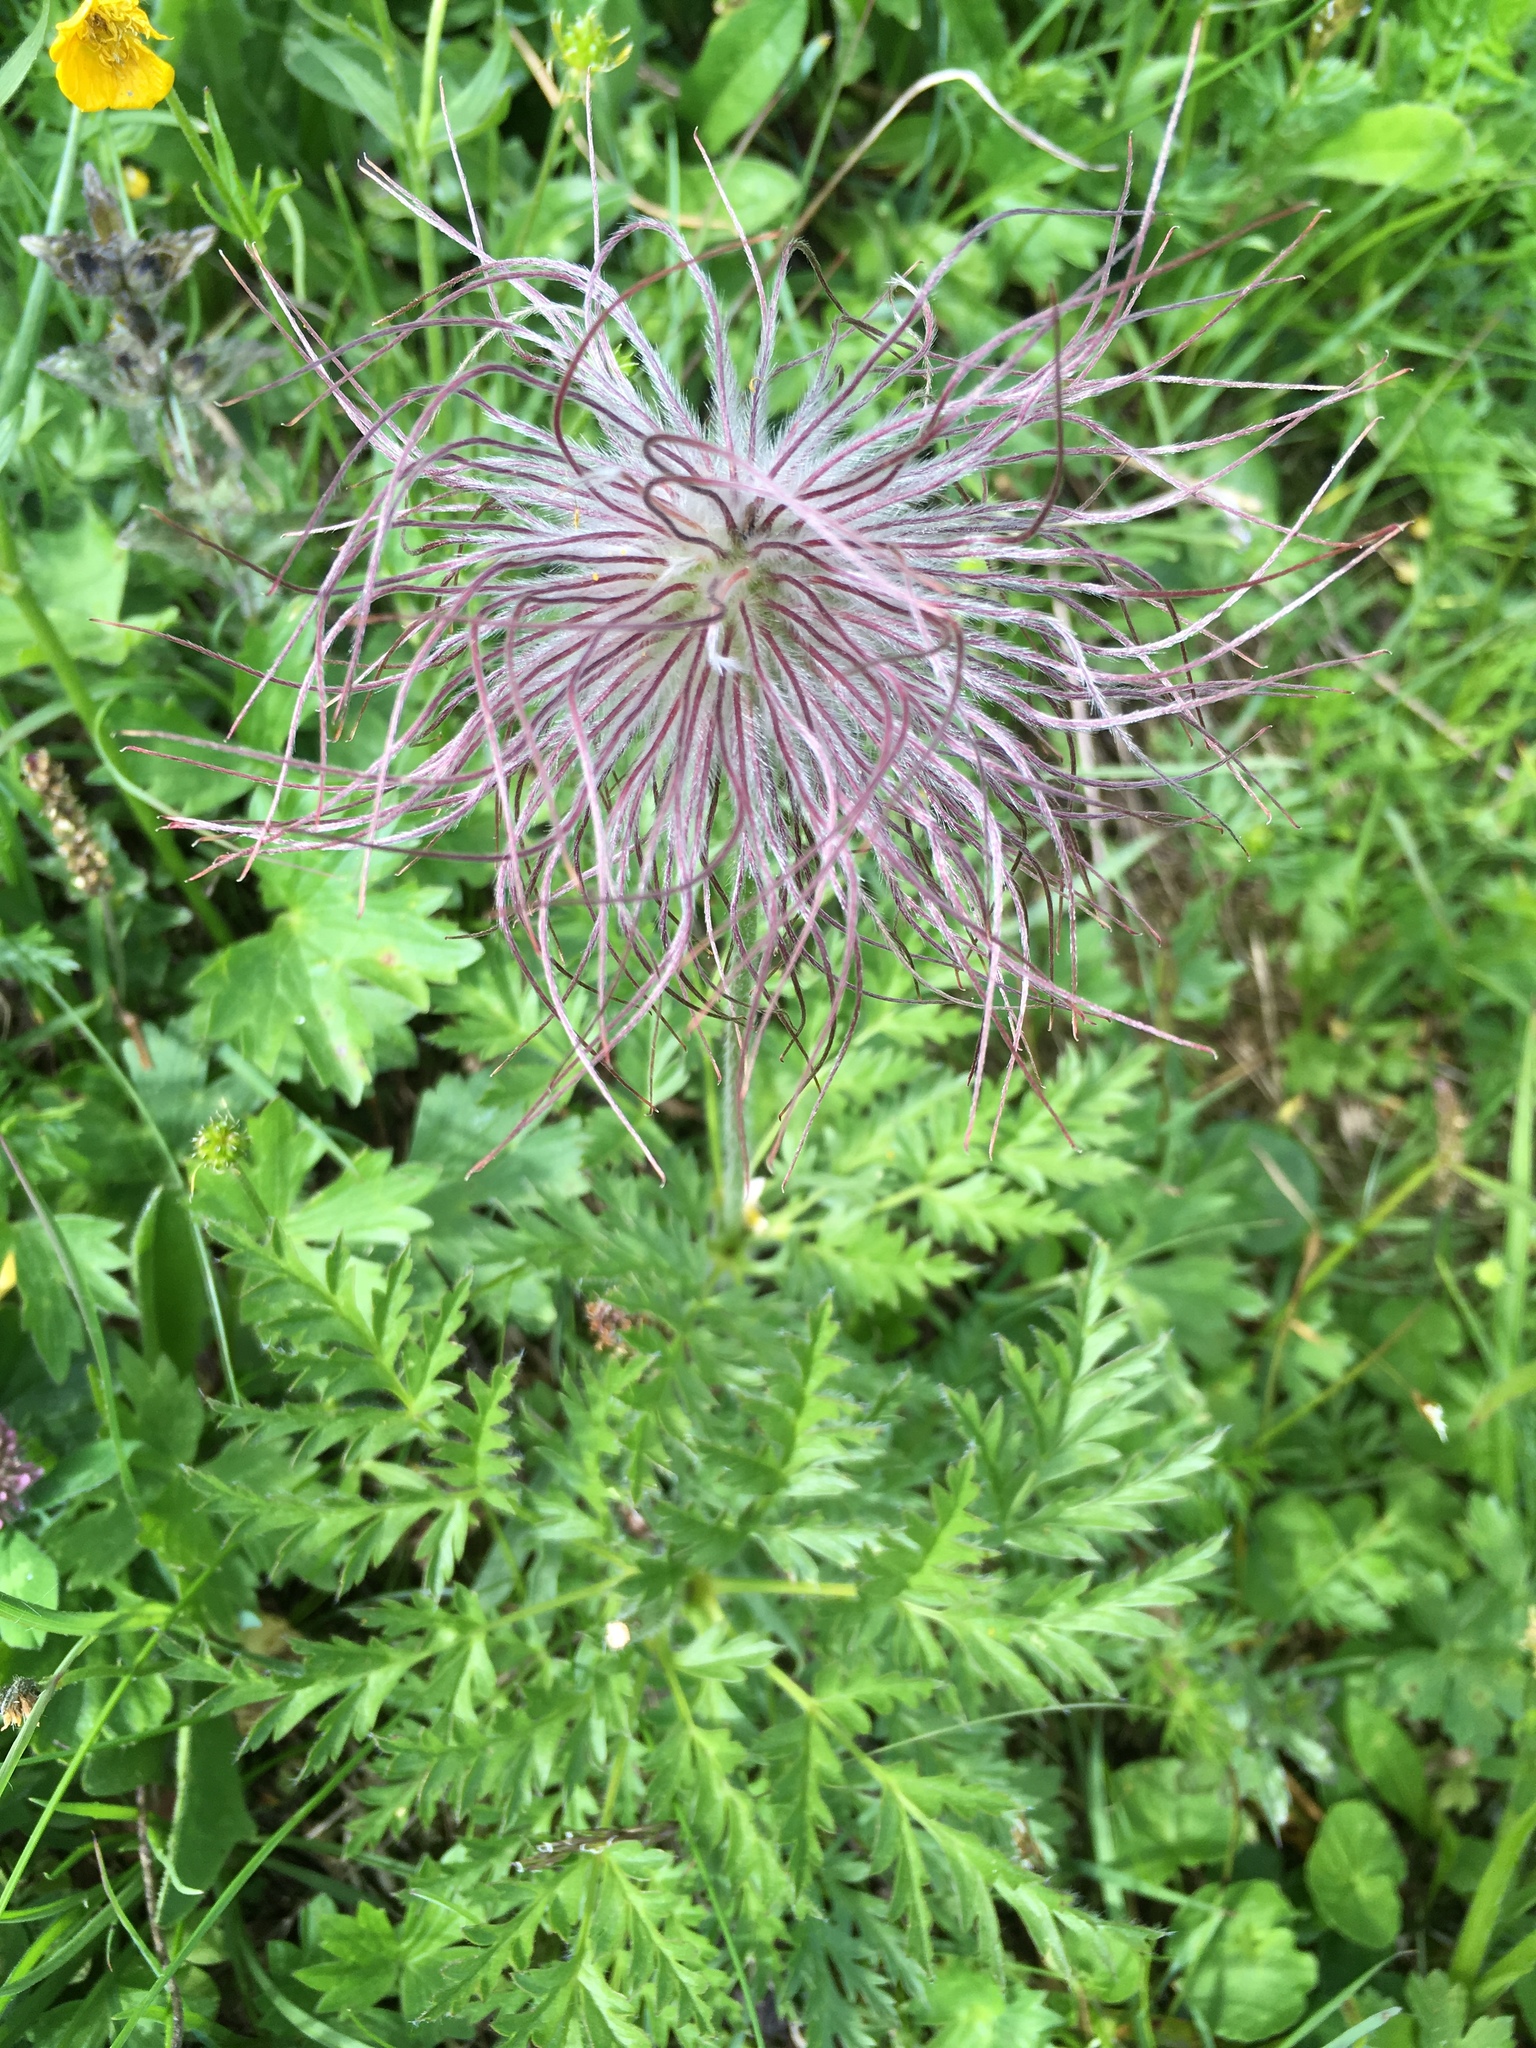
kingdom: Plantae
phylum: Tracheophyta
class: Magnoliopsida
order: Ranunculales
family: Ranunculaceae
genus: Pulsatilla
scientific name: Pulsatilla alpina
